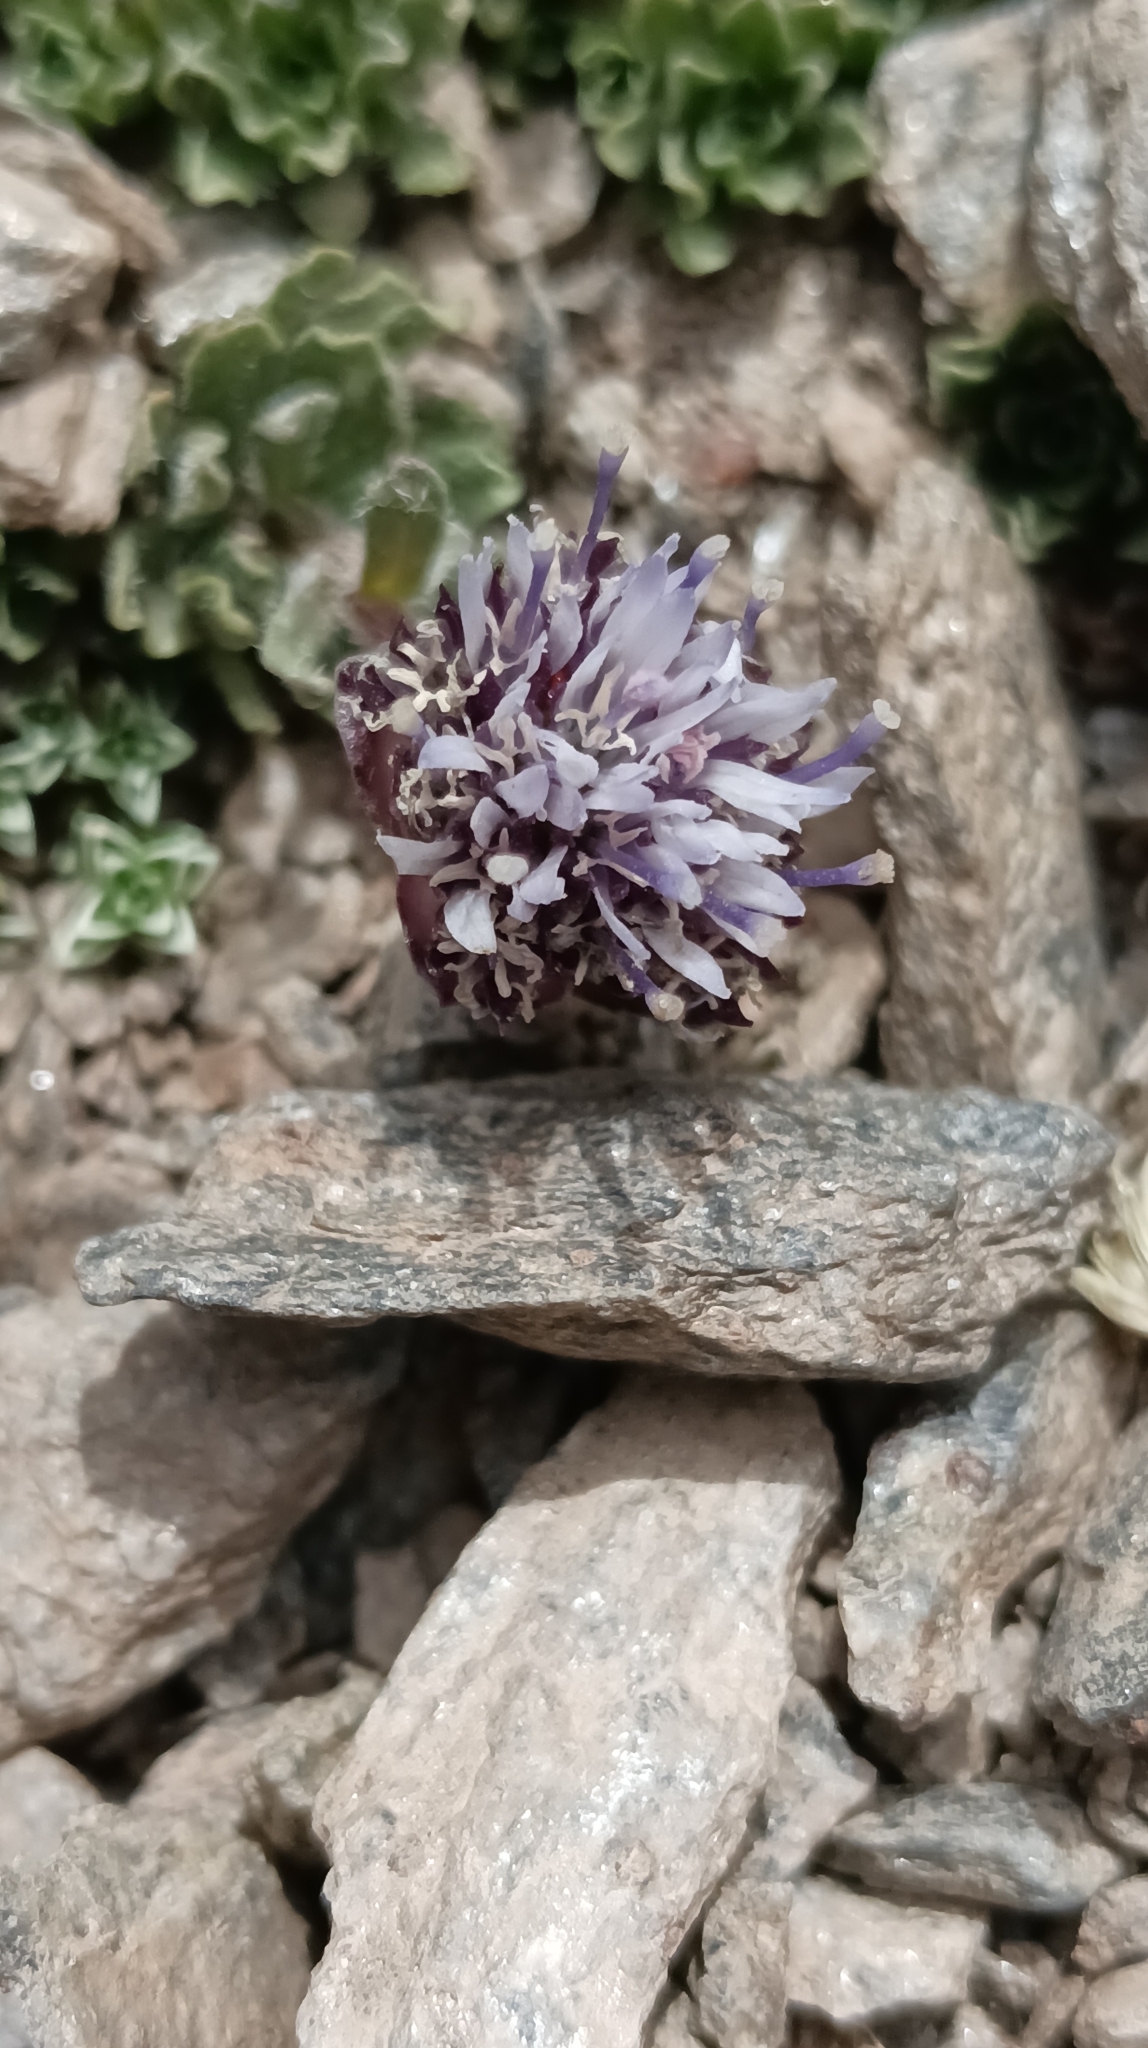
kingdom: Plantae
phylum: Tracheophyta
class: Magnoliopsida
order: Asterales
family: Campanulaceae
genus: Jasione
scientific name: Jasione crispa
